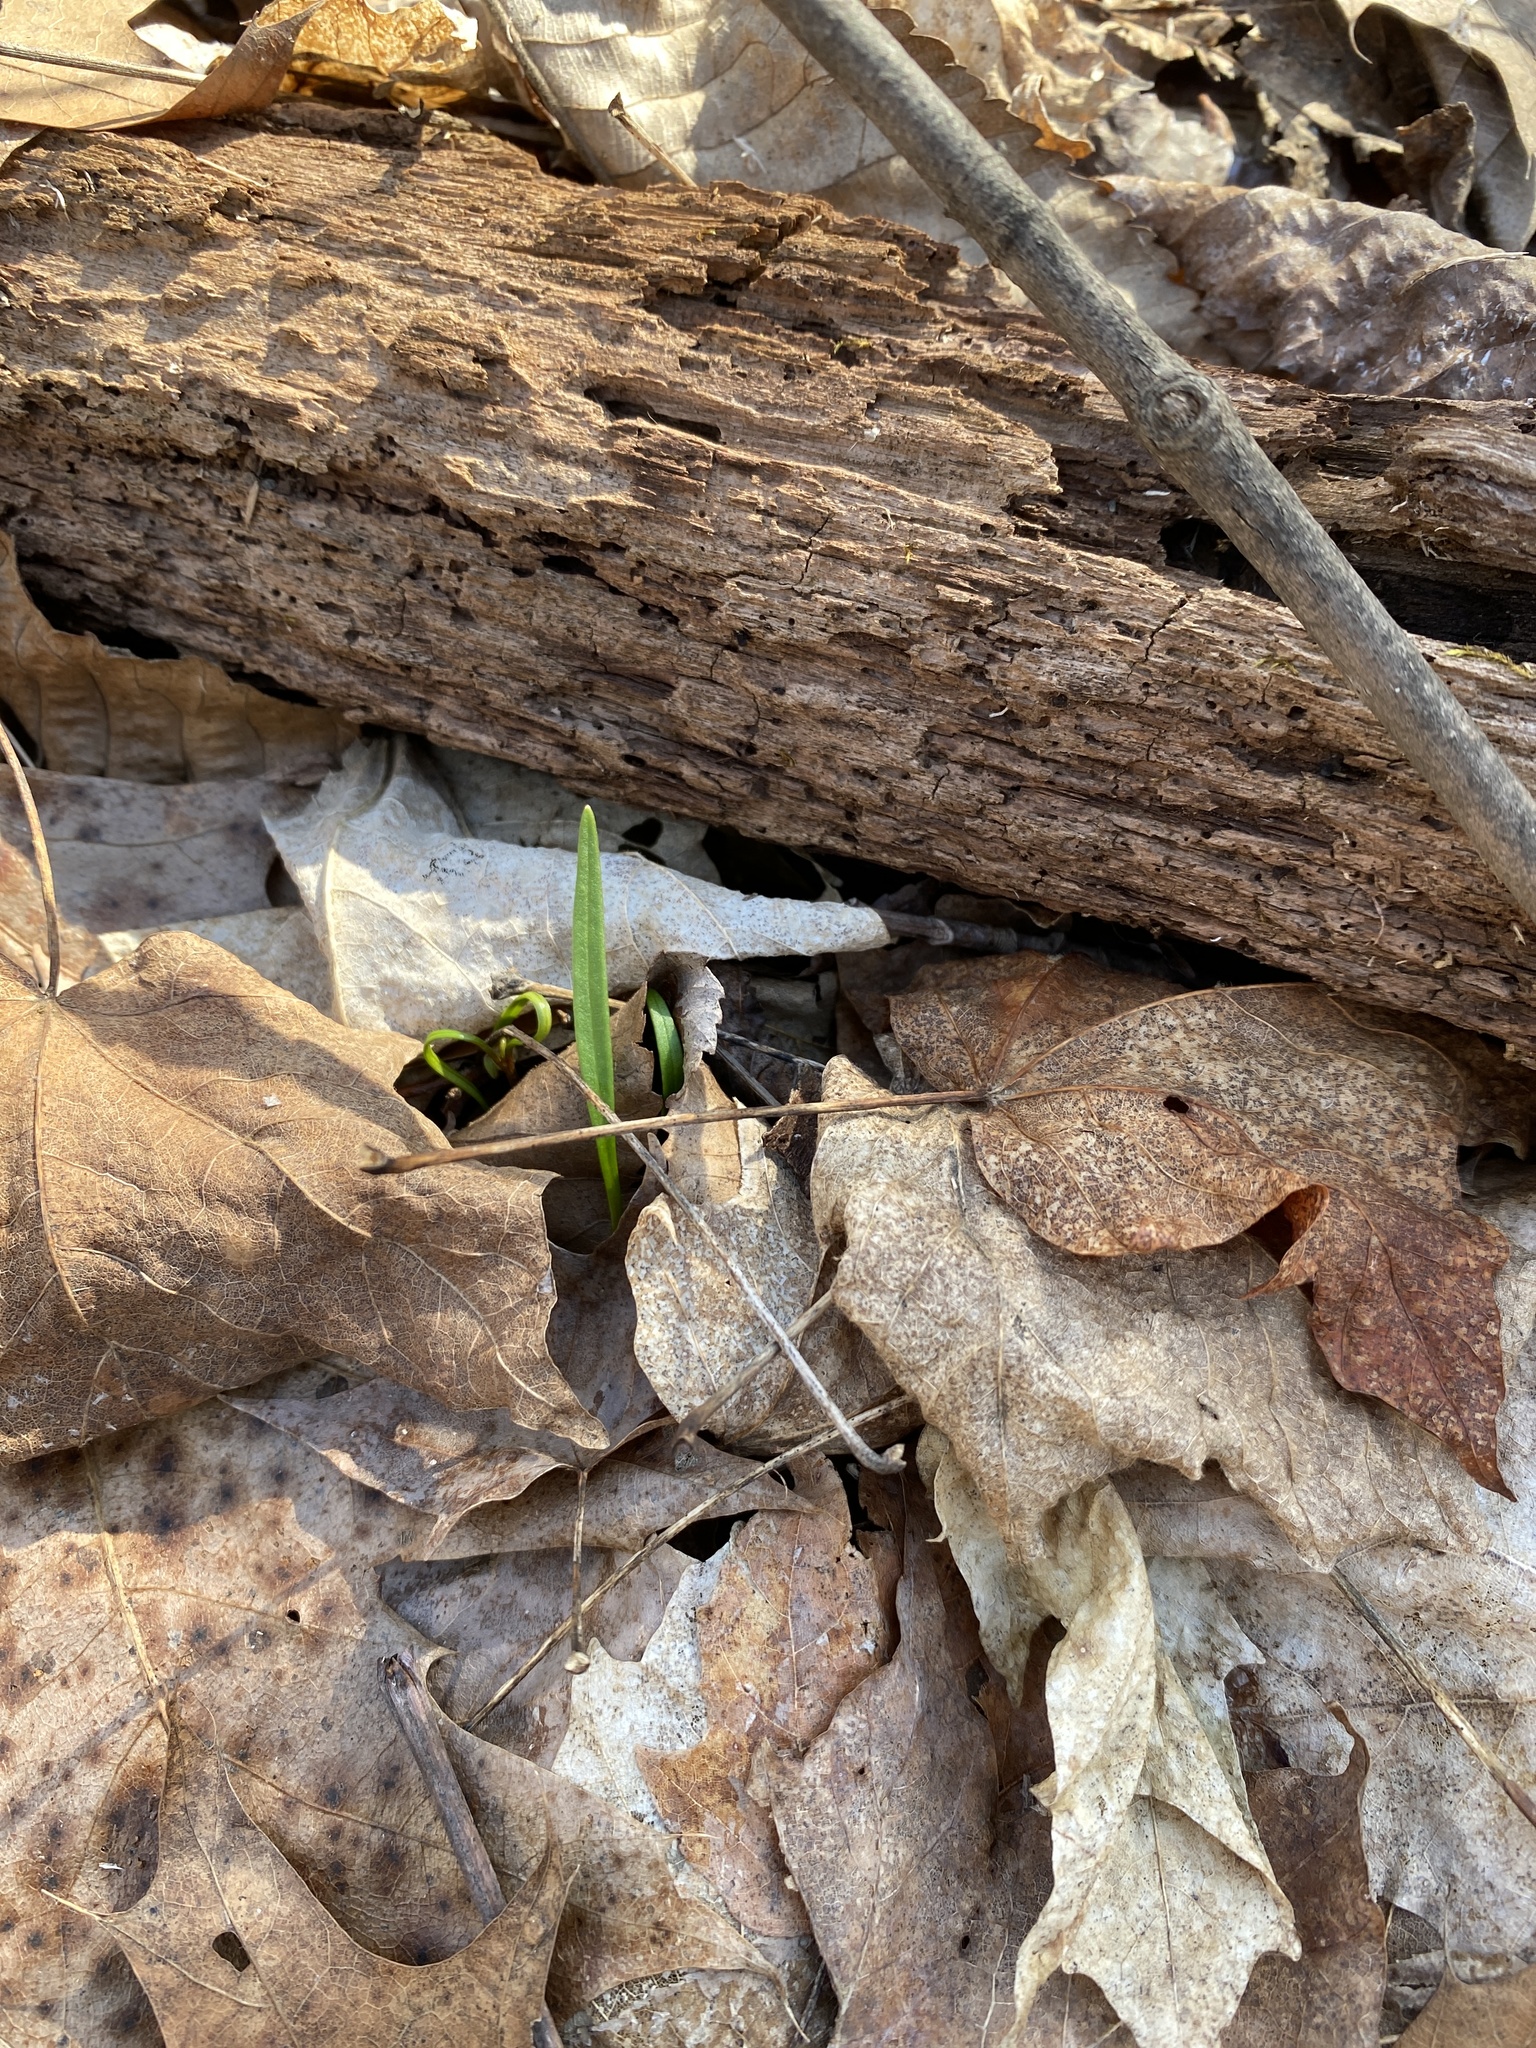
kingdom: Plantae
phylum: Tracheophyta
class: Magnoliopsida
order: Caryophyllales
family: Montiaceae
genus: Claytonia
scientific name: Claytonia virginica
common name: Virginia springbeauty
